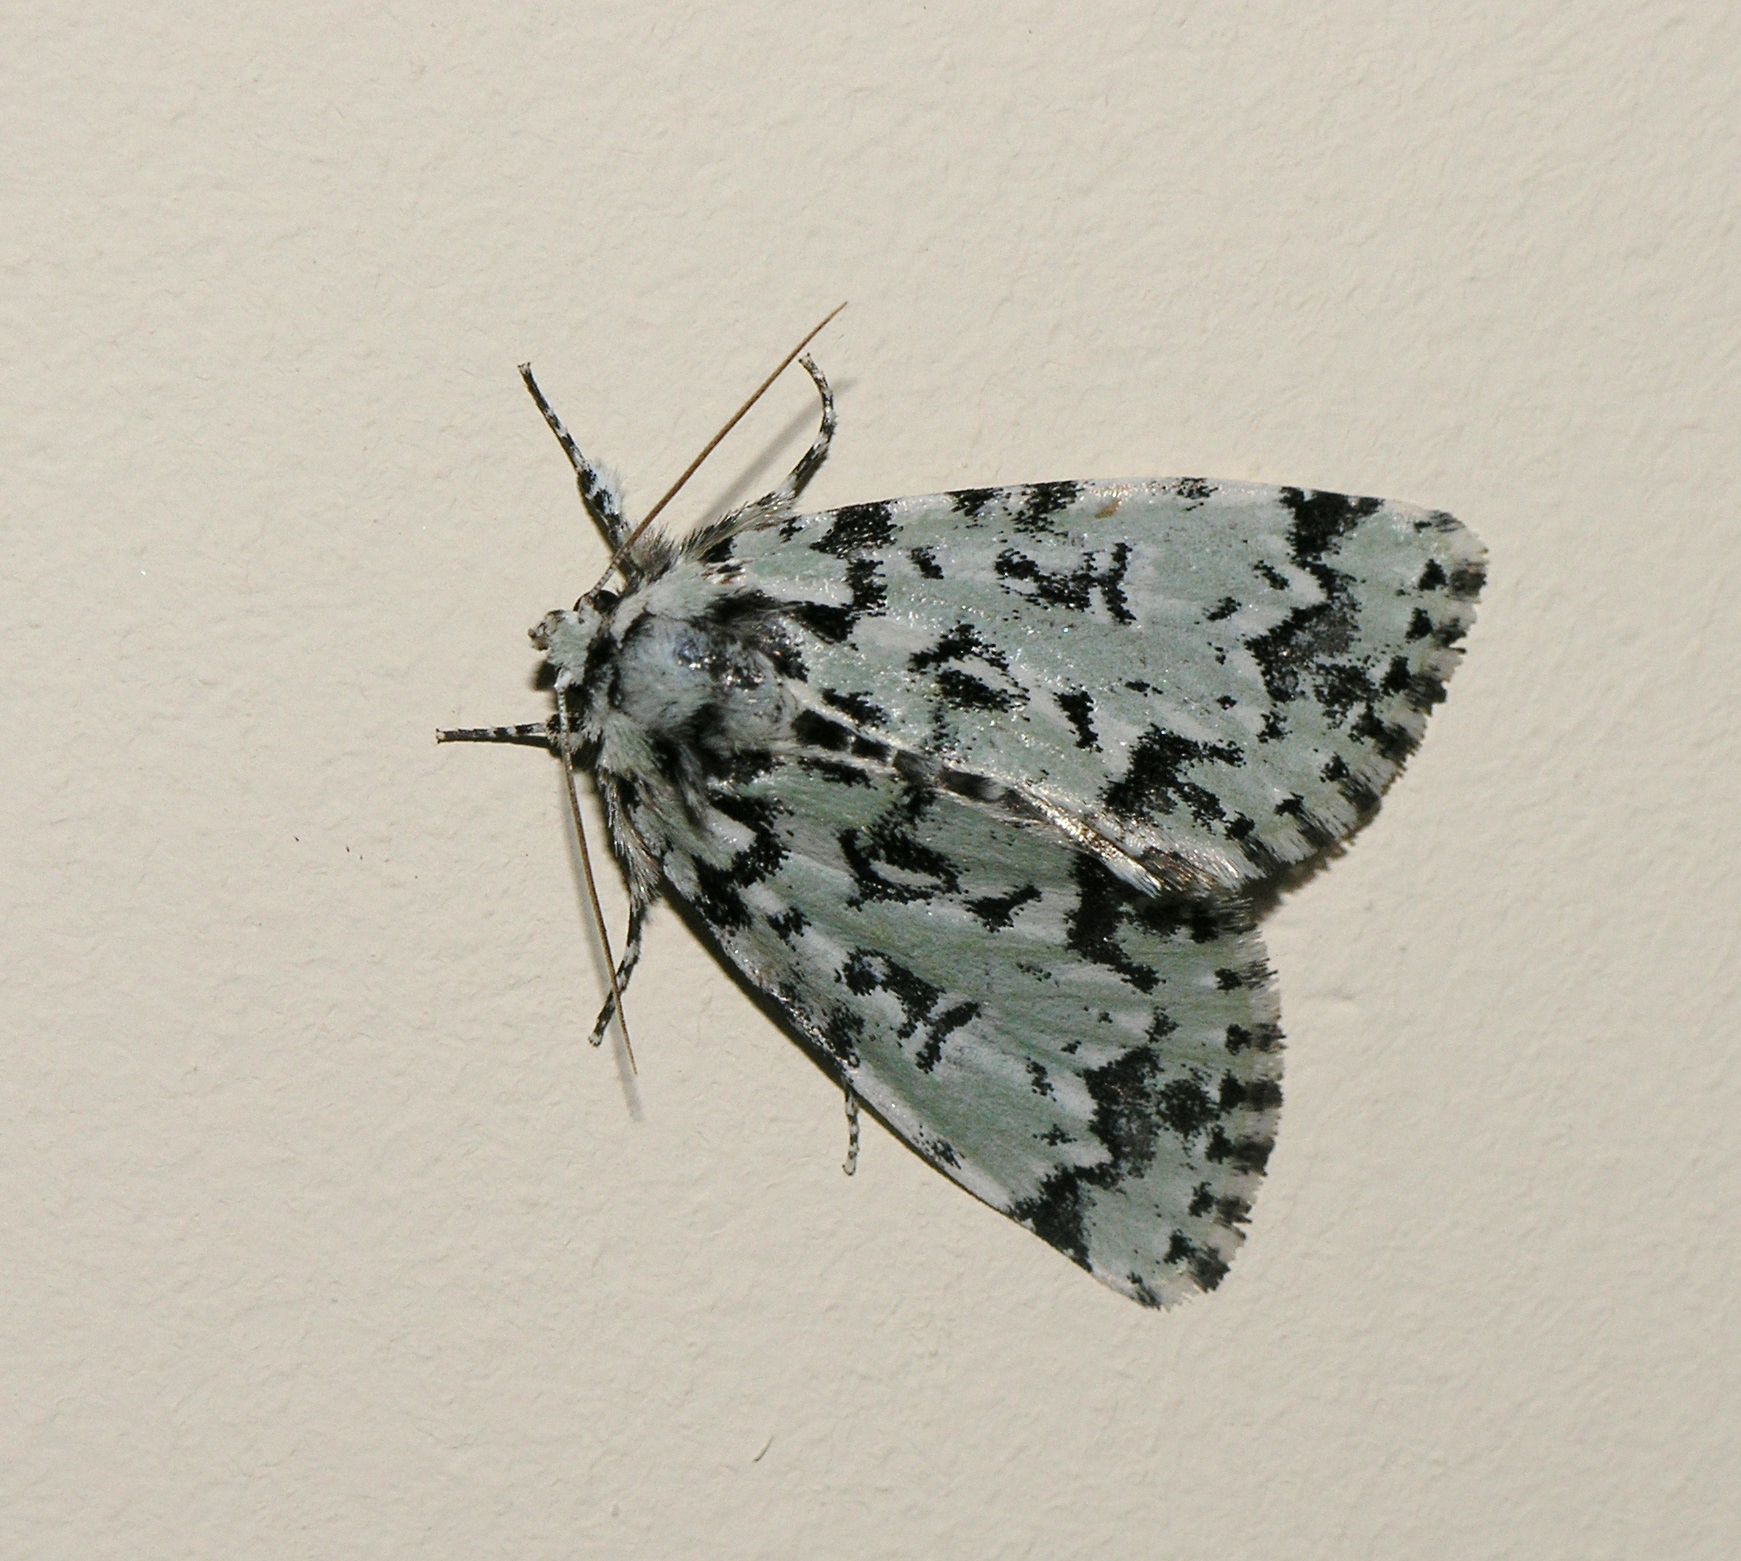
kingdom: Animalia
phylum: Arthropoda
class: Insecta
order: Lepidoptera
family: Noctuidae
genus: Moma
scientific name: Moma alpium
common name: Scarce merveille du jour
